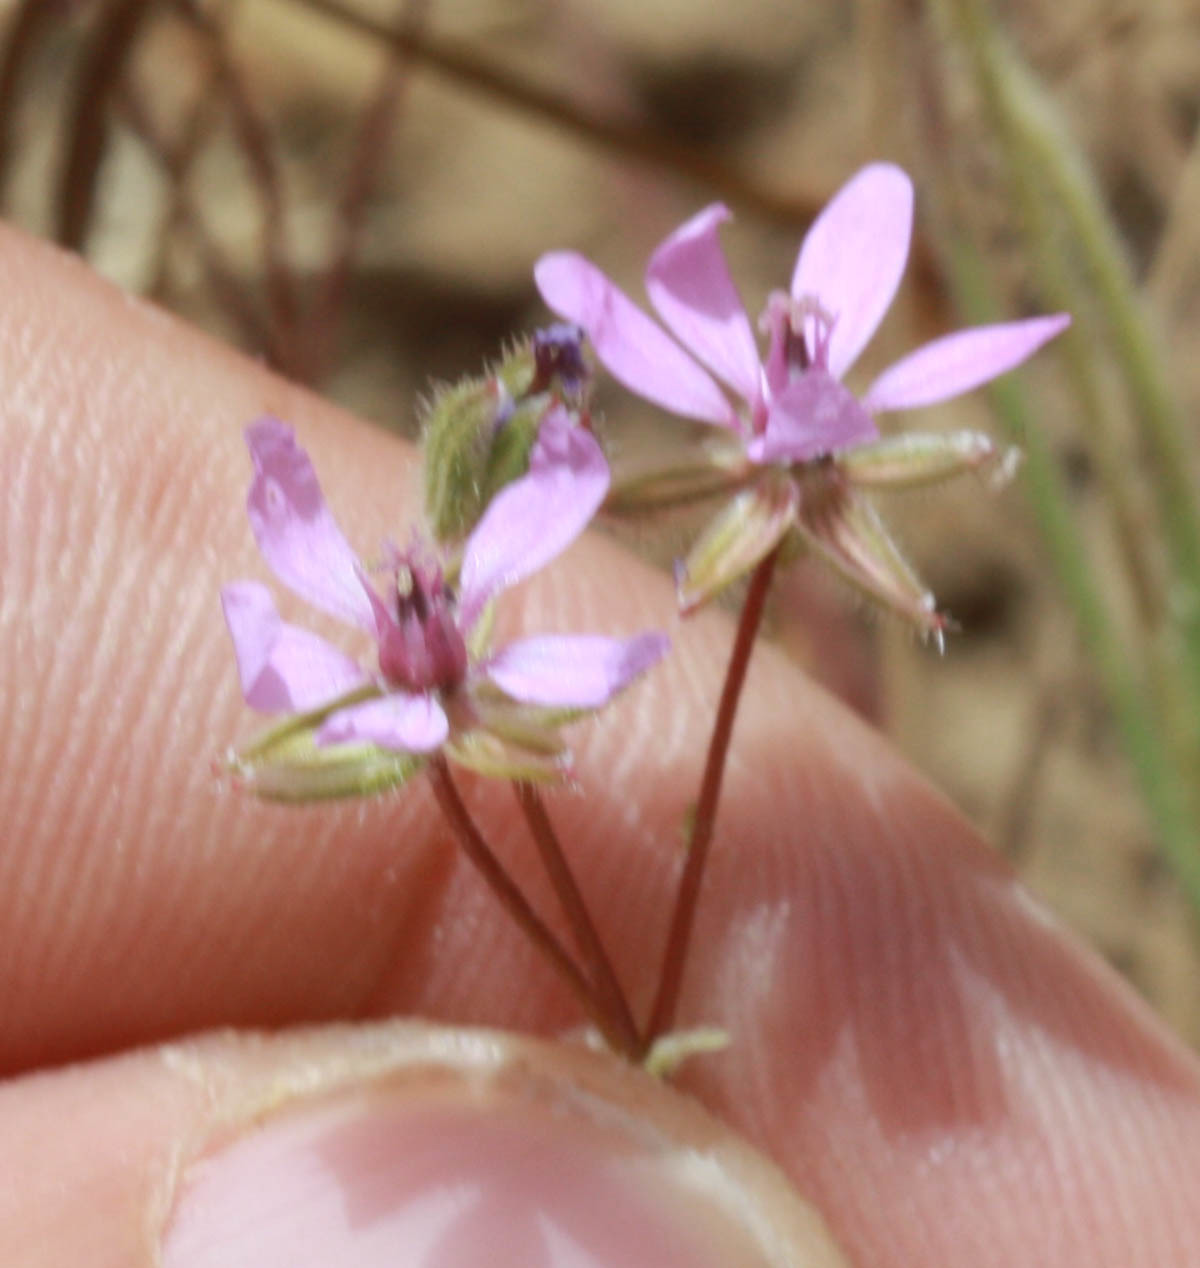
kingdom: Plantae
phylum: Tracheophyta
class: Magnoliopsida
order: Geraniales
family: Geraniaceae
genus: Erodium
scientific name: Erodium cicutarium
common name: Common stork's-bill
